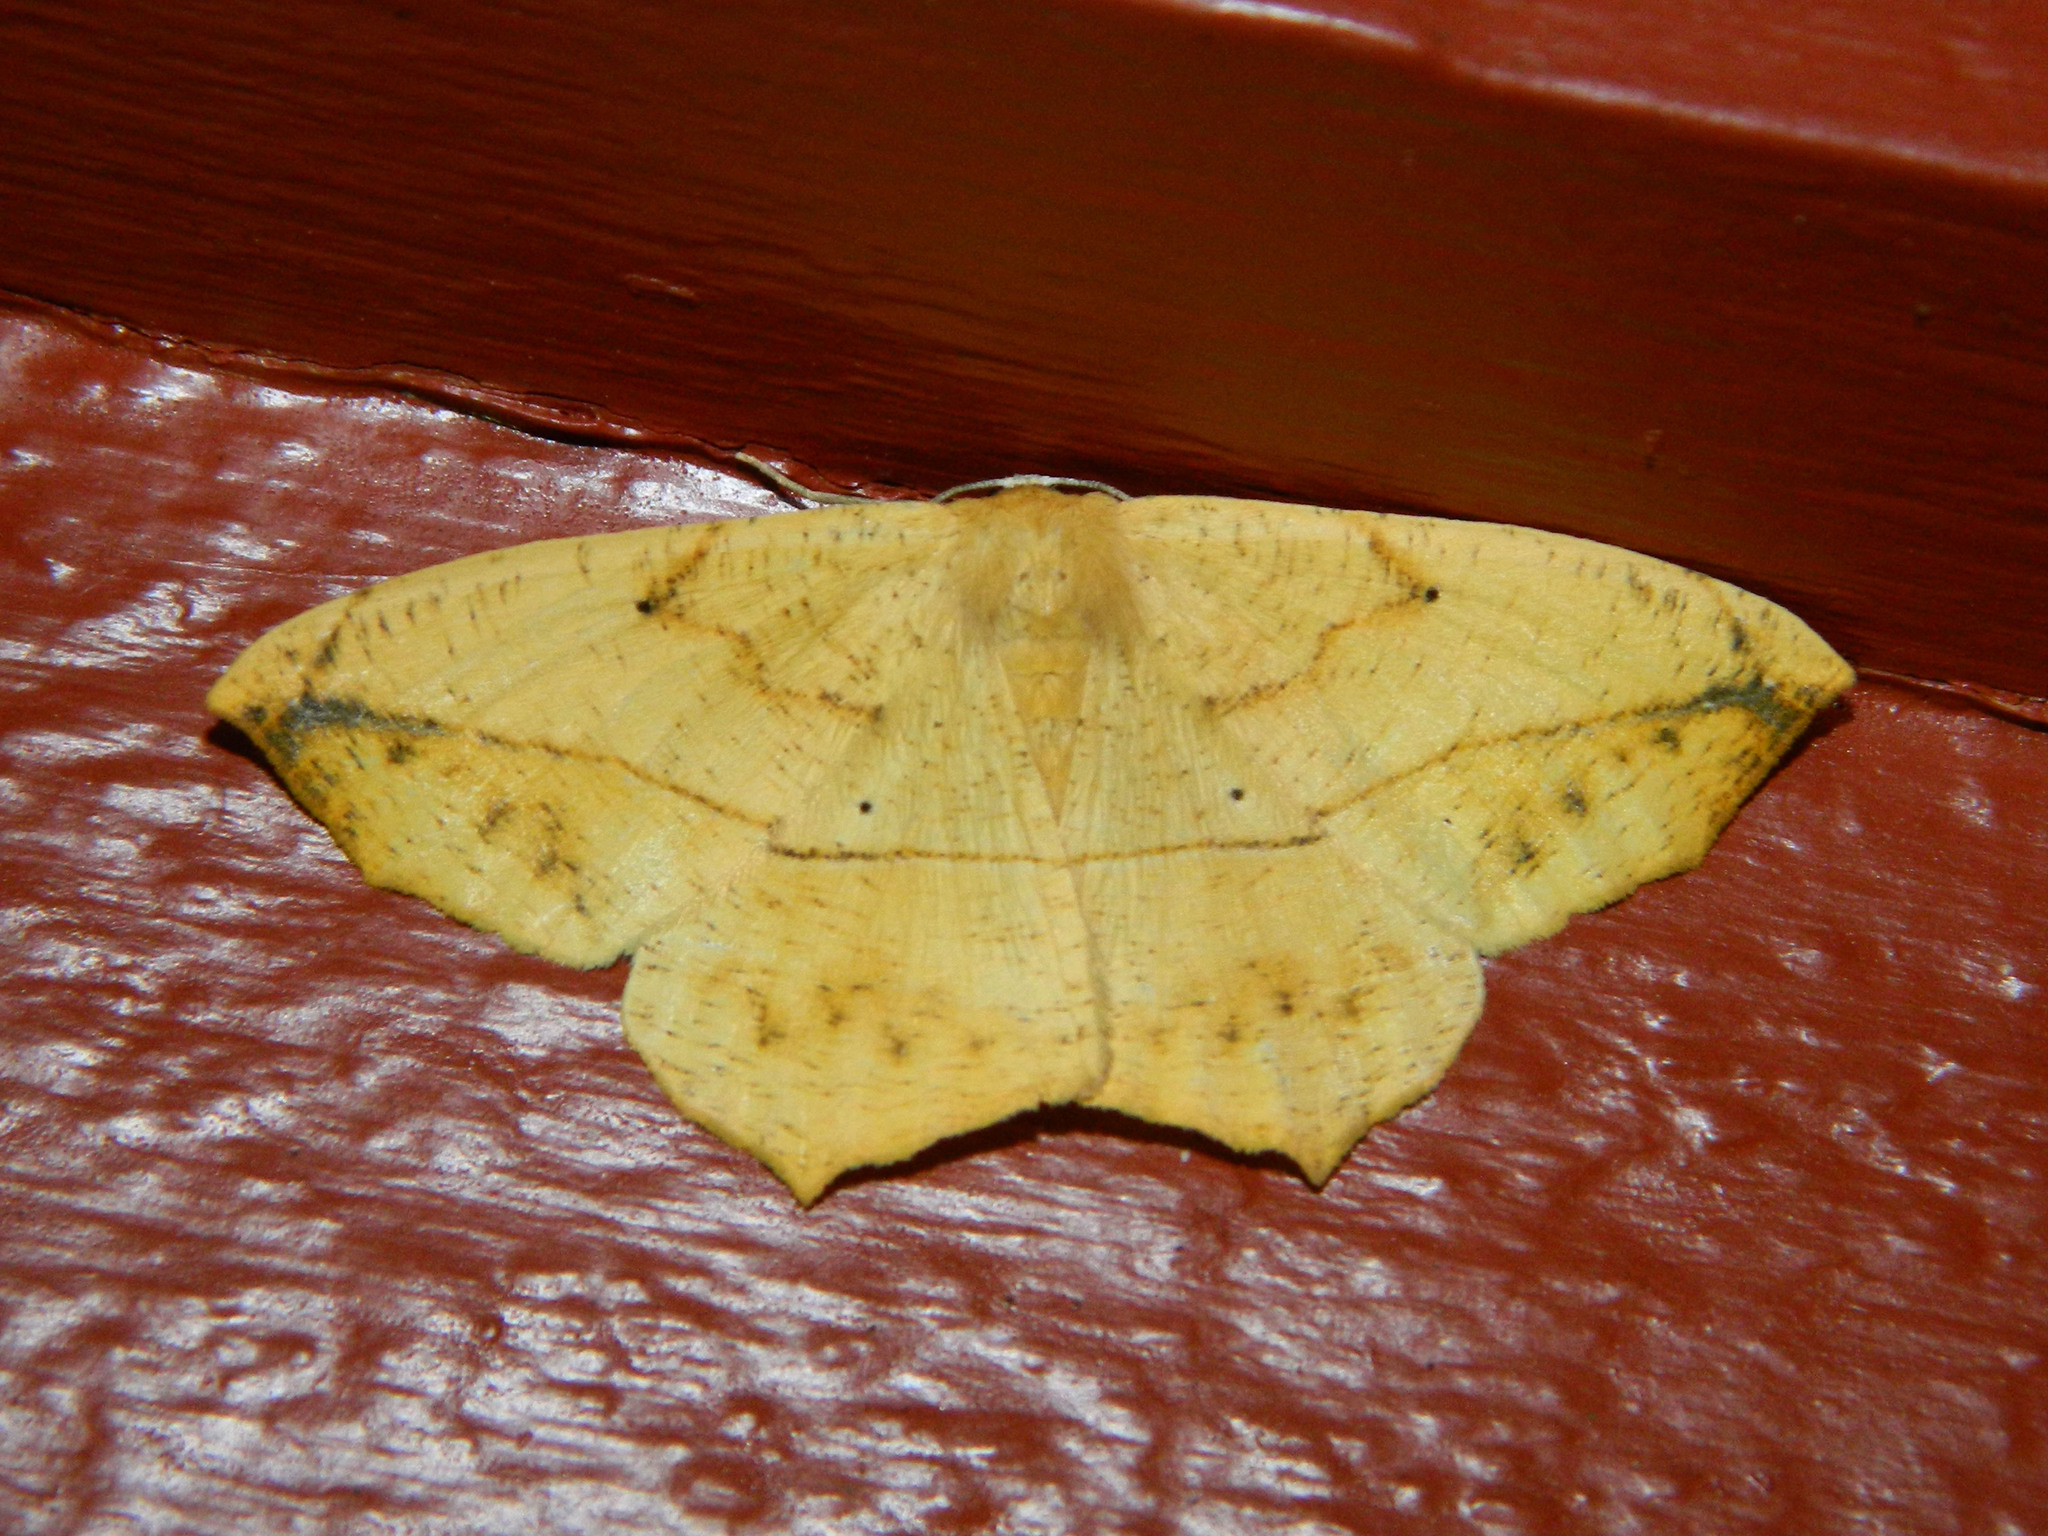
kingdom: Animalia
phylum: Arthropoda
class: Insecta
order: Lepidoptera
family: Geometridae
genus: Prochoerodes
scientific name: Prochoerodes lineola
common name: Large maple spanworm
